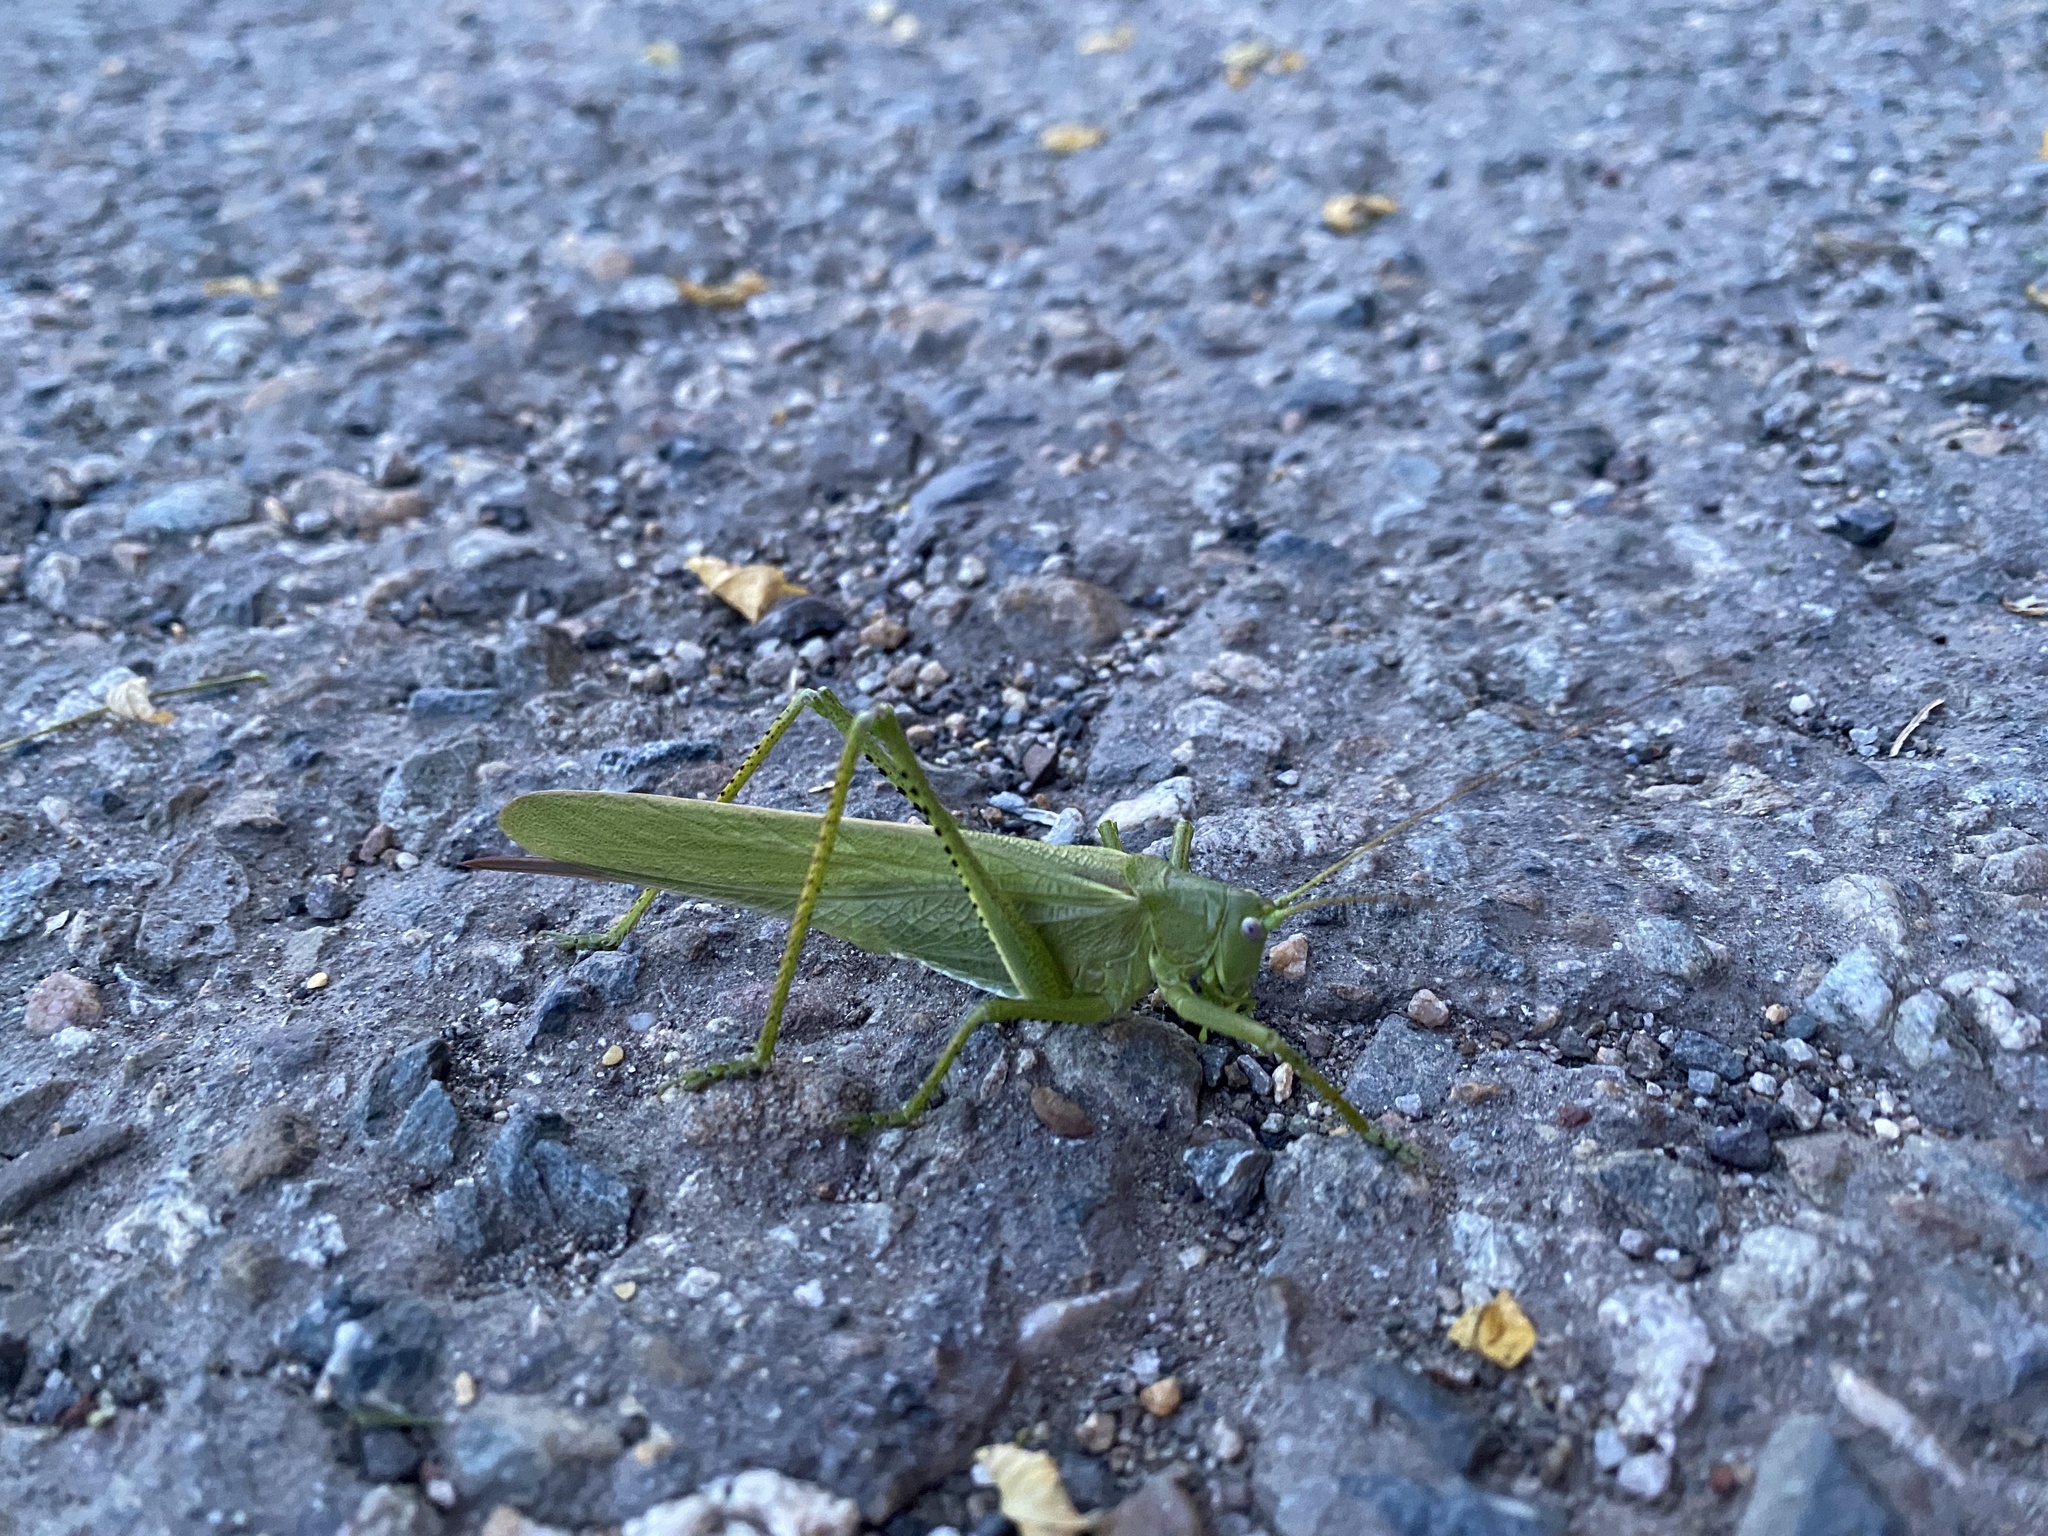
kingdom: Animalia
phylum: Arthropoda
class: Insecta
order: Orthoptera
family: Tettigoniidae
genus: Tettigonia
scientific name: Tettigonia caudata
